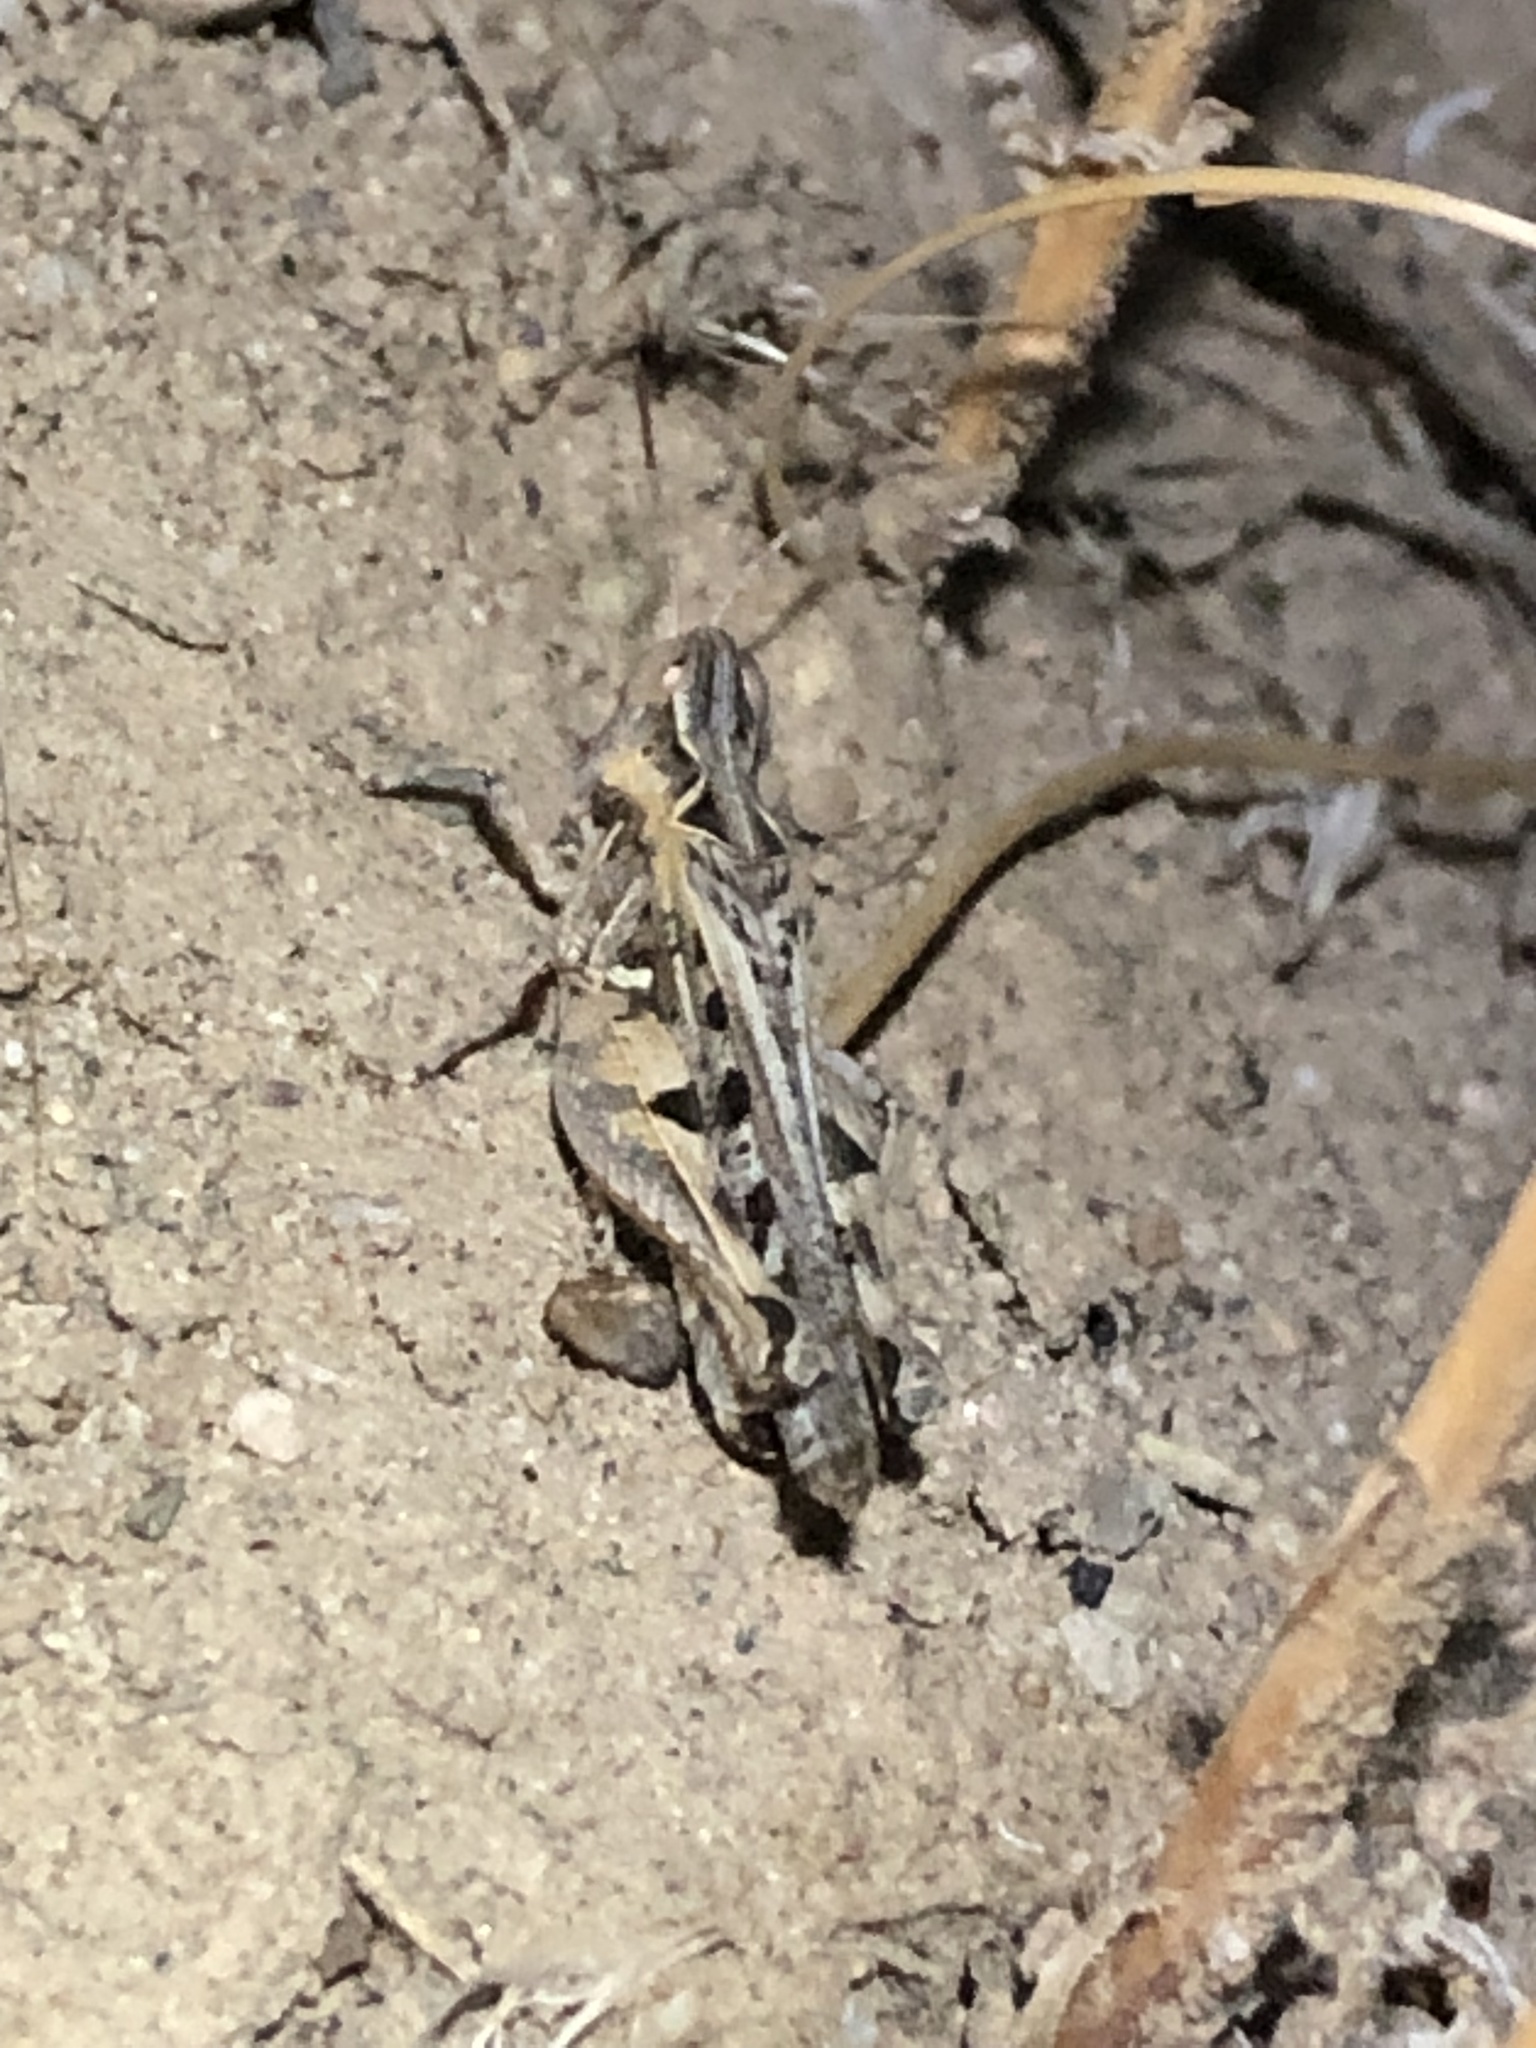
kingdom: Animalia
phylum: Arthropoda
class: Insecta
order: Orthoptera
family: Acrididae
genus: Psoloessa
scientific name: Psoloessa texana
